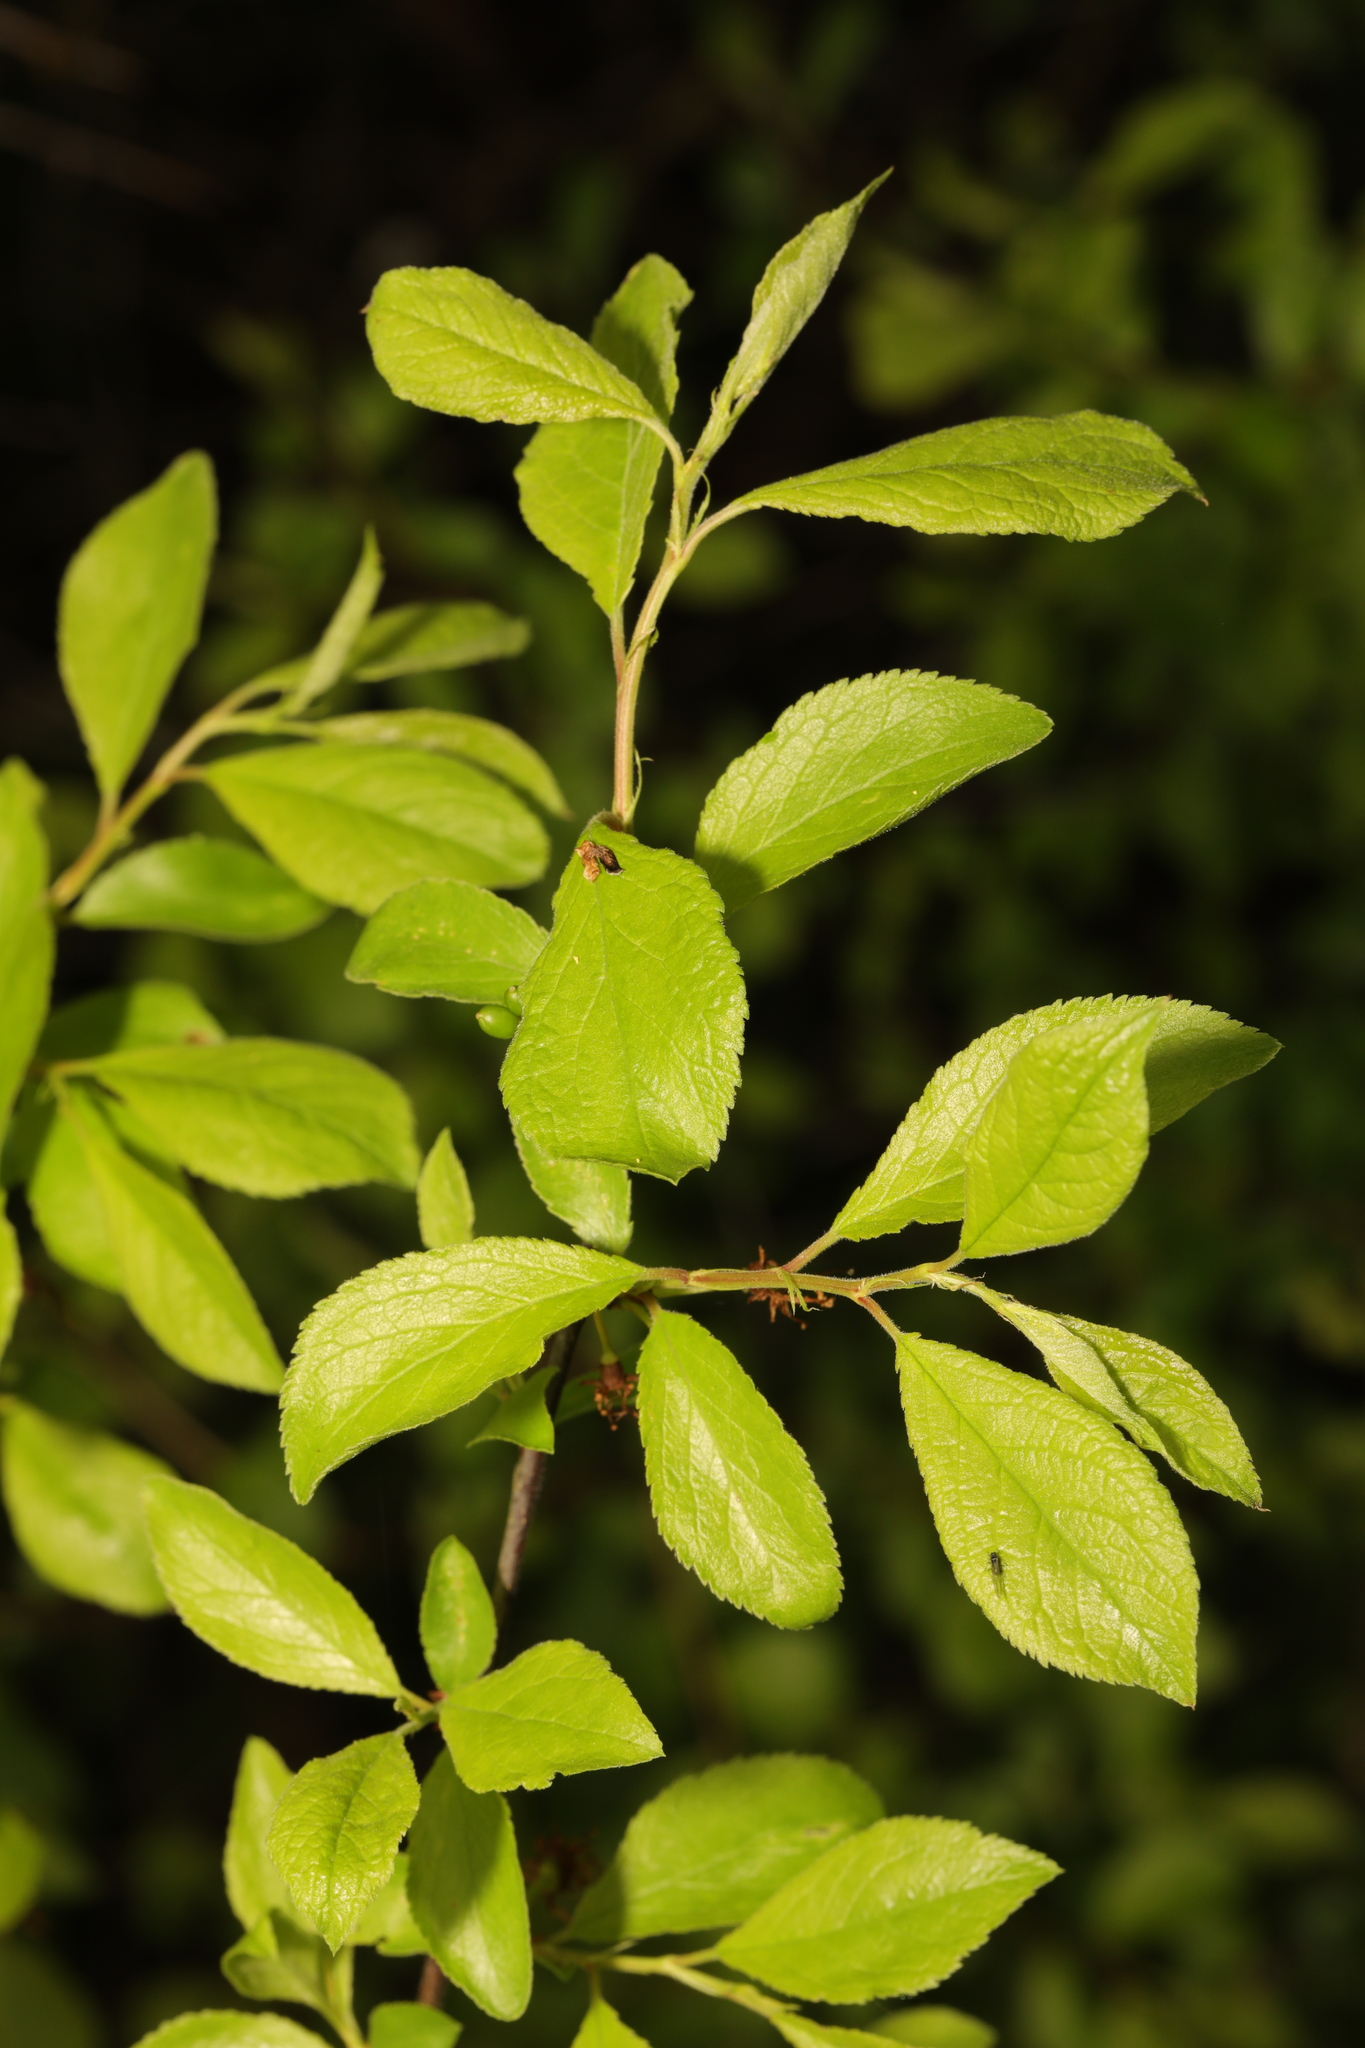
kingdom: Plantae
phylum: Tracheophyta
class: Magnoliopsida
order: Rosales
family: Rosaceae
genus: Prunus
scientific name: Prunus spinosa
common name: Blackthorn
